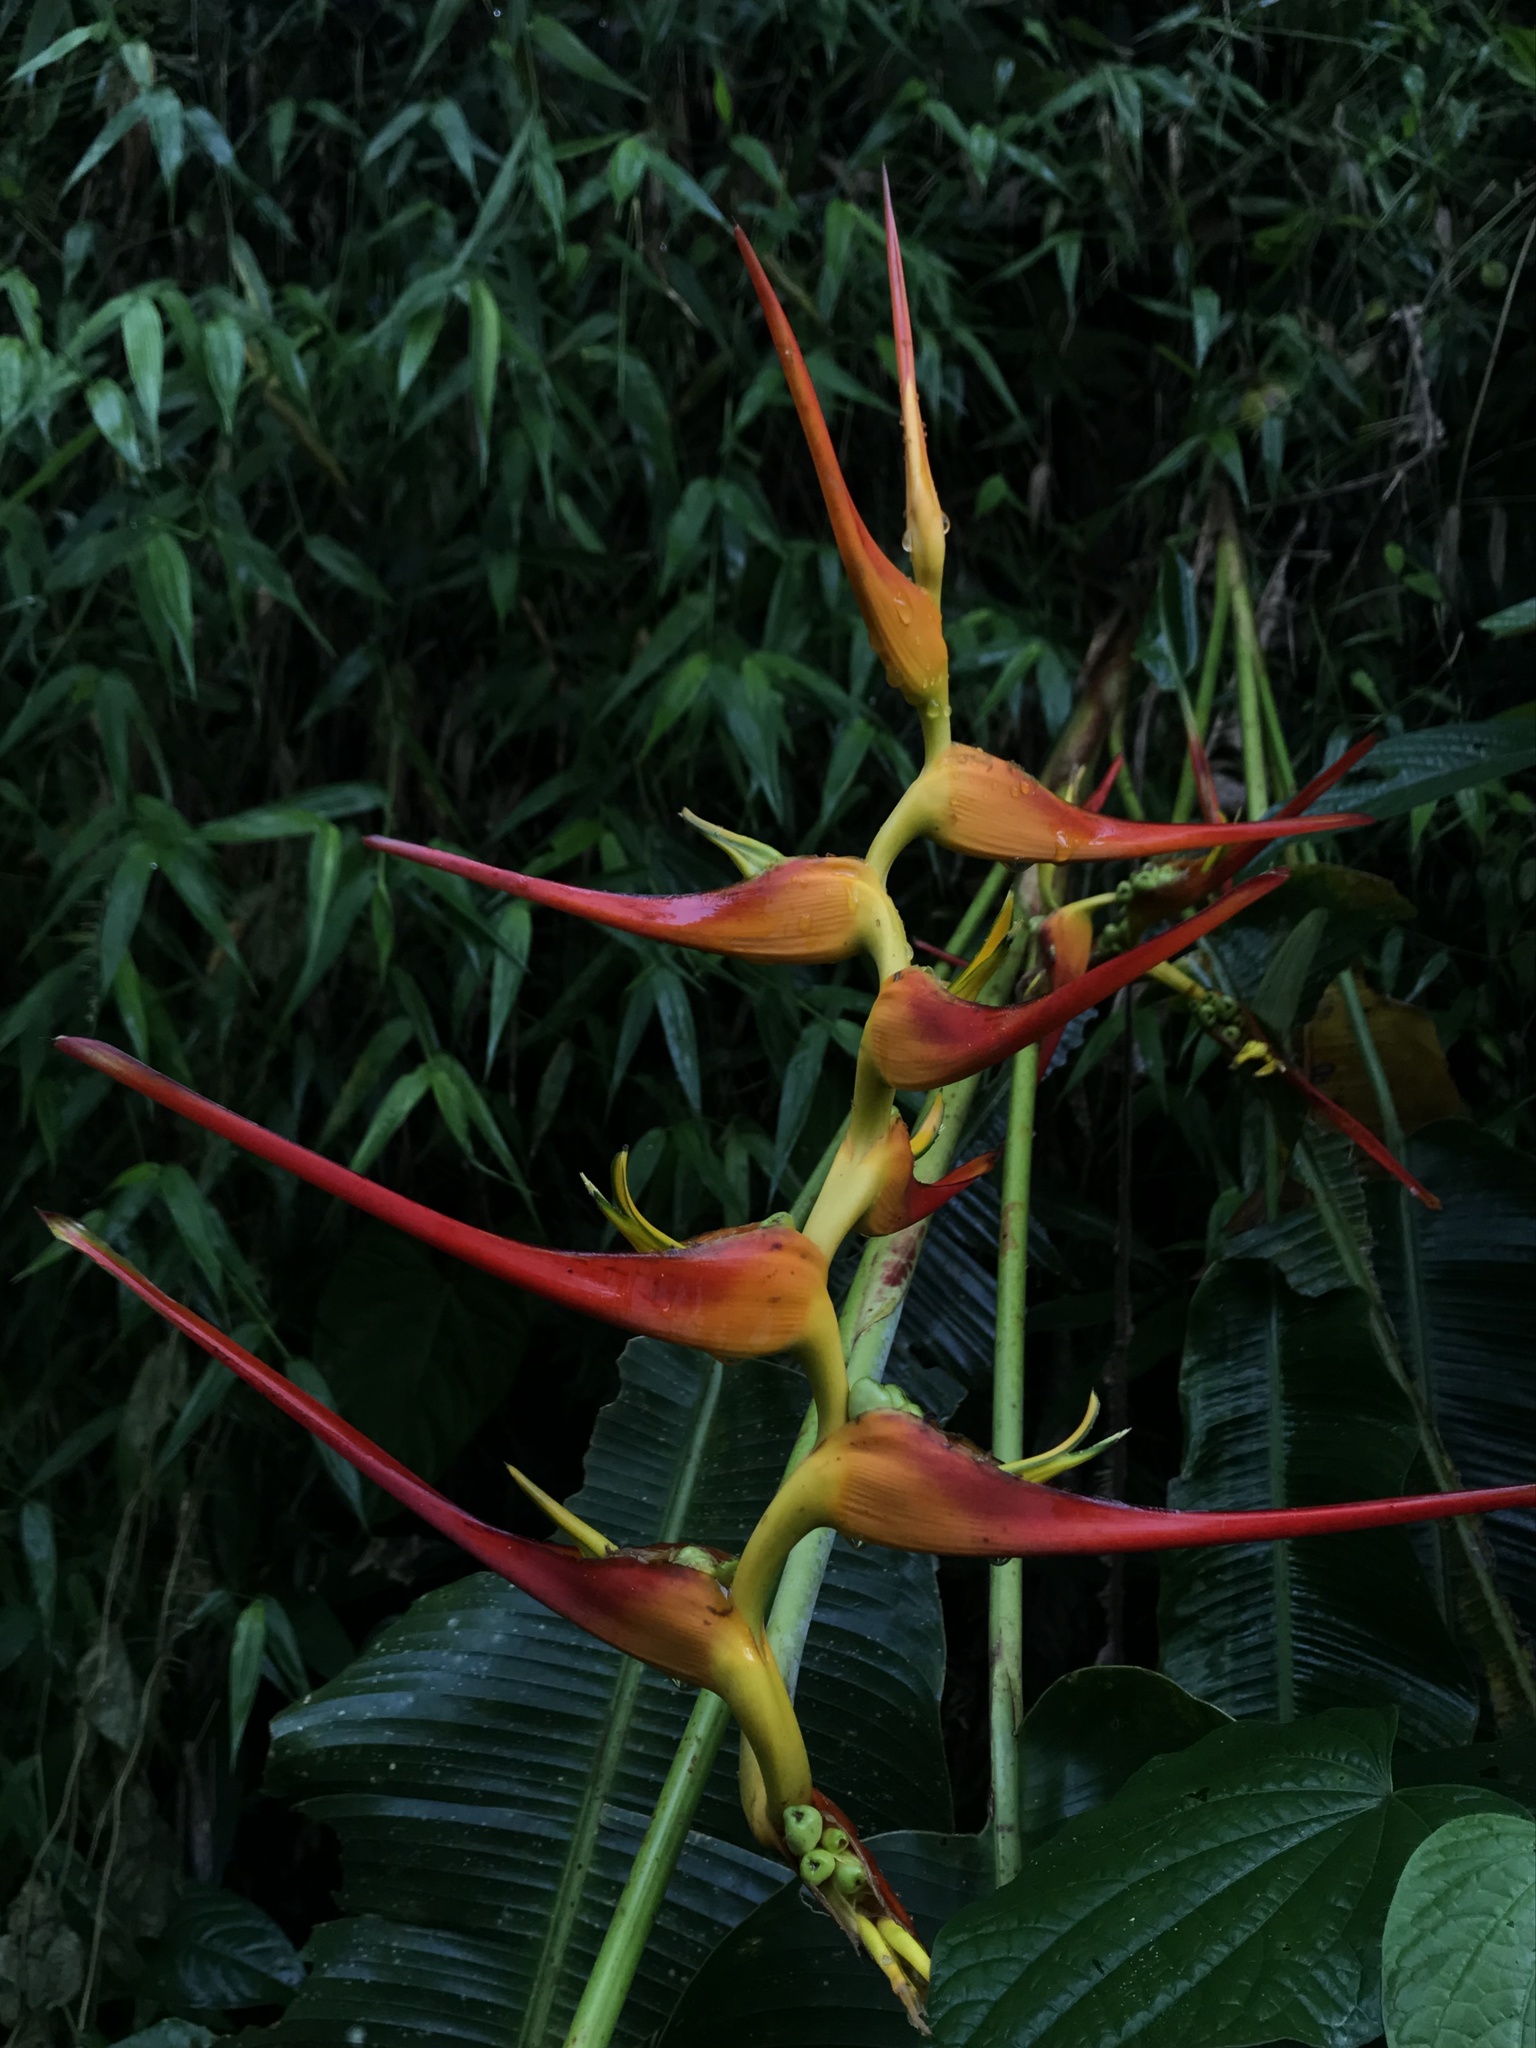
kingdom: Plantae
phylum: Tracheophyta
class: Liliopsida
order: Zingiberales
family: Heliconiaceae
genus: Heliconia
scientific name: Heliconia latispatha
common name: Expanded lobsterclaw
